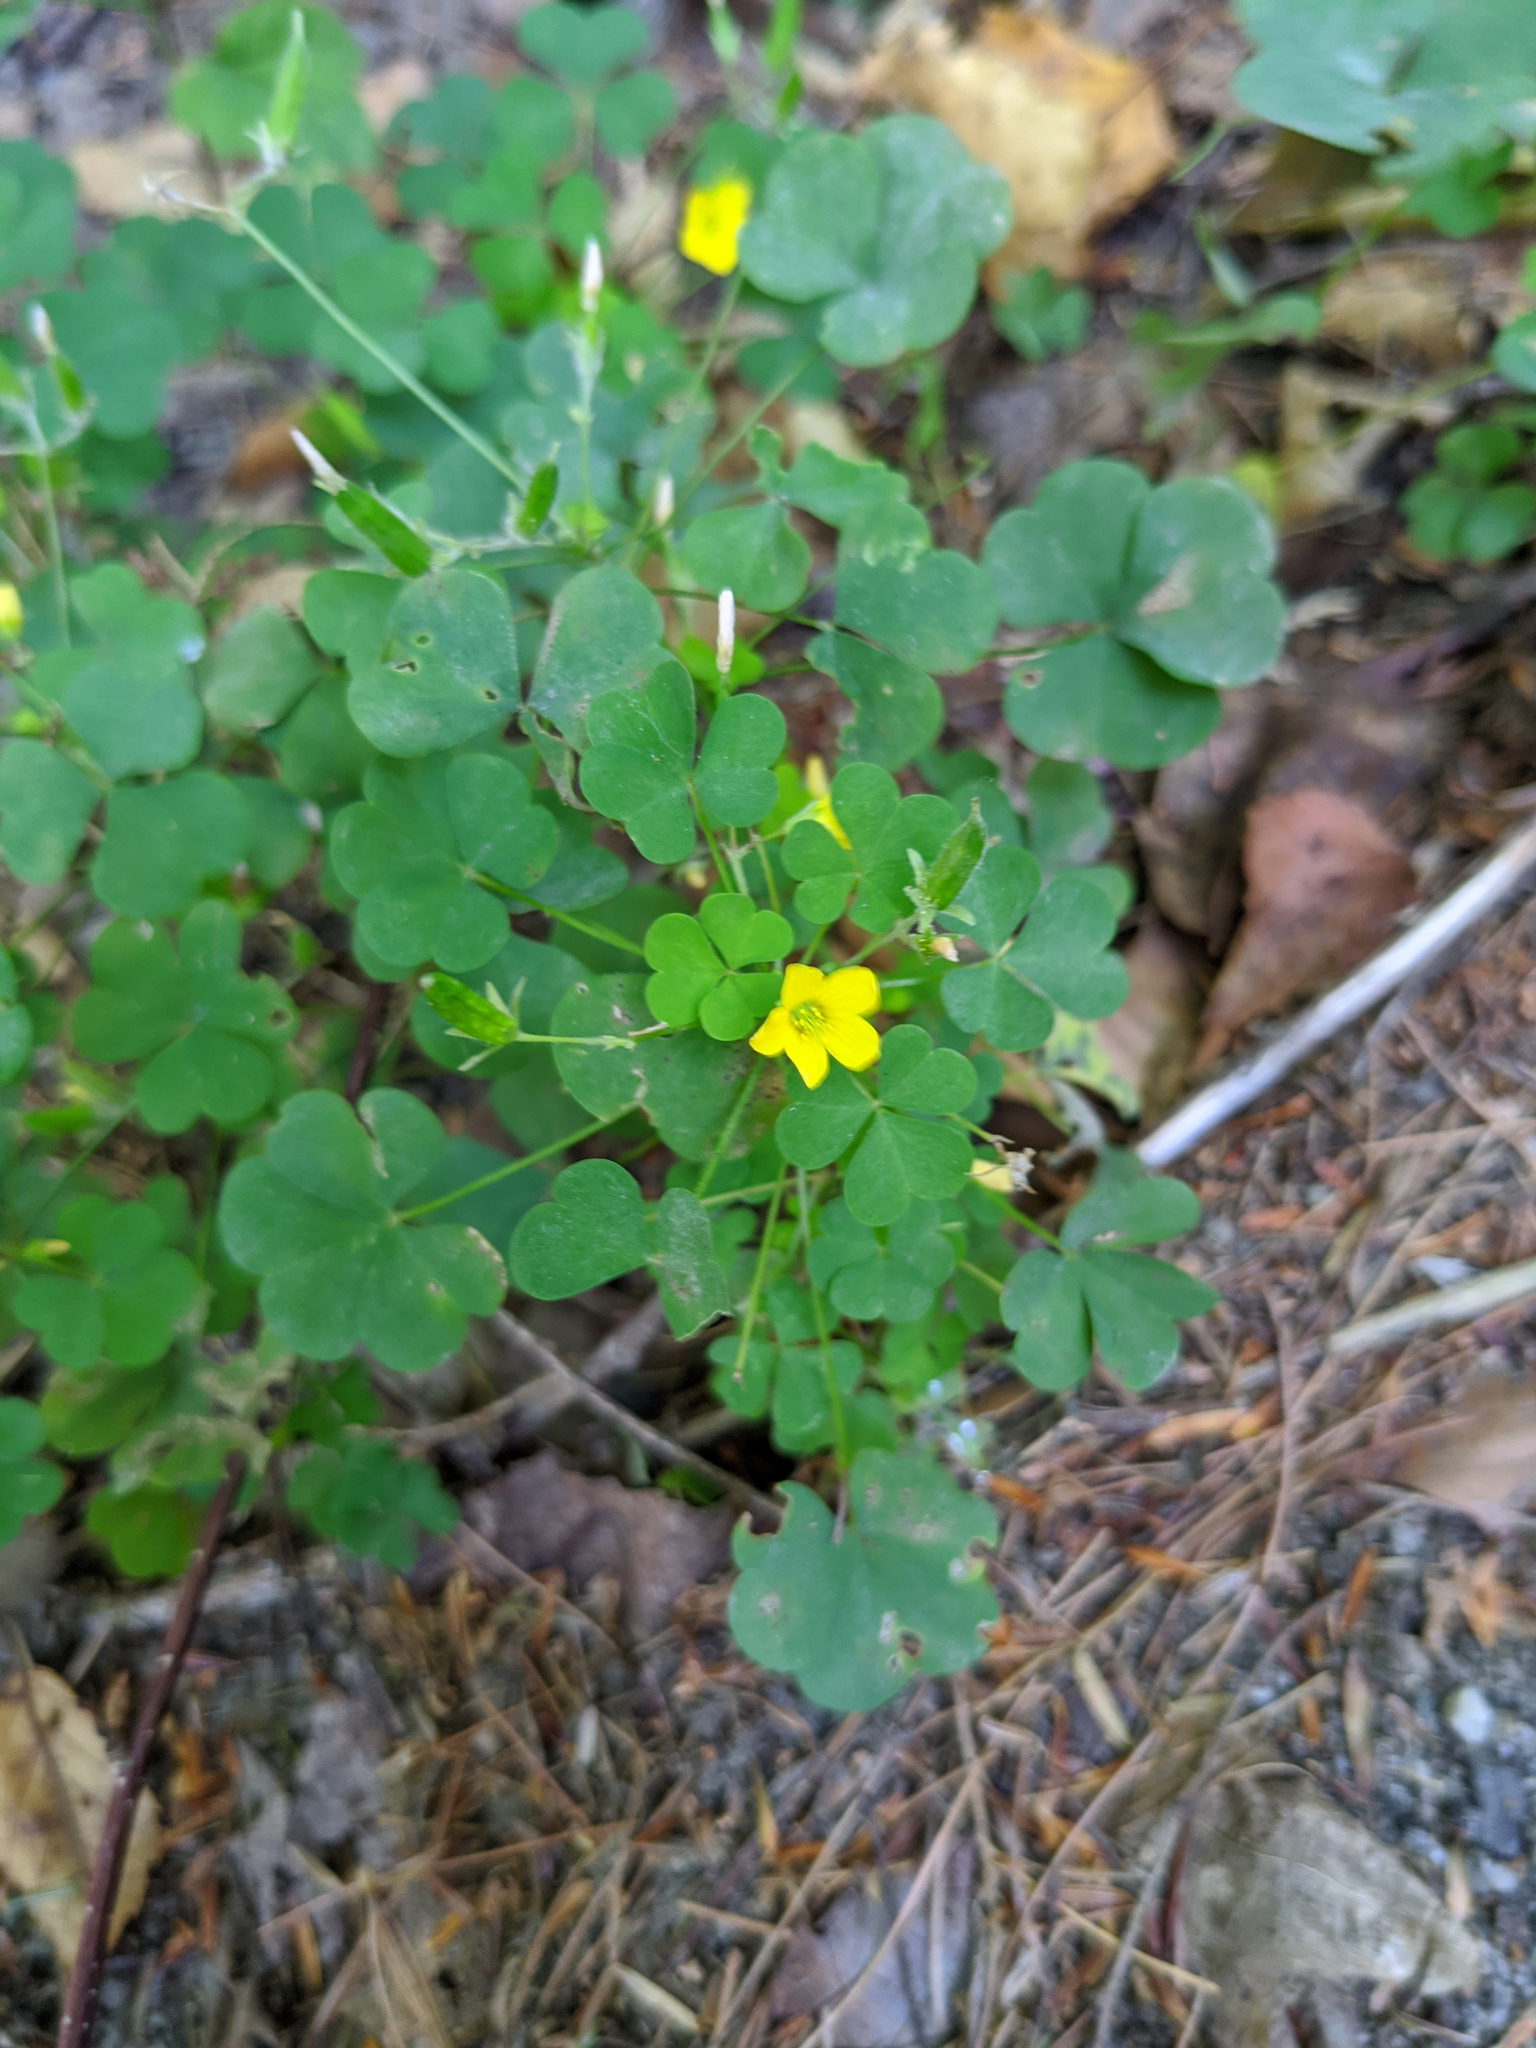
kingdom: Plantae
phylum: Tracheophyta
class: Magnoliopsida
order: Oxalidales
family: Oxalidaceae
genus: Oxalis
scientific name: Oxalis stricta
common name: Upright yellow-sorrel
